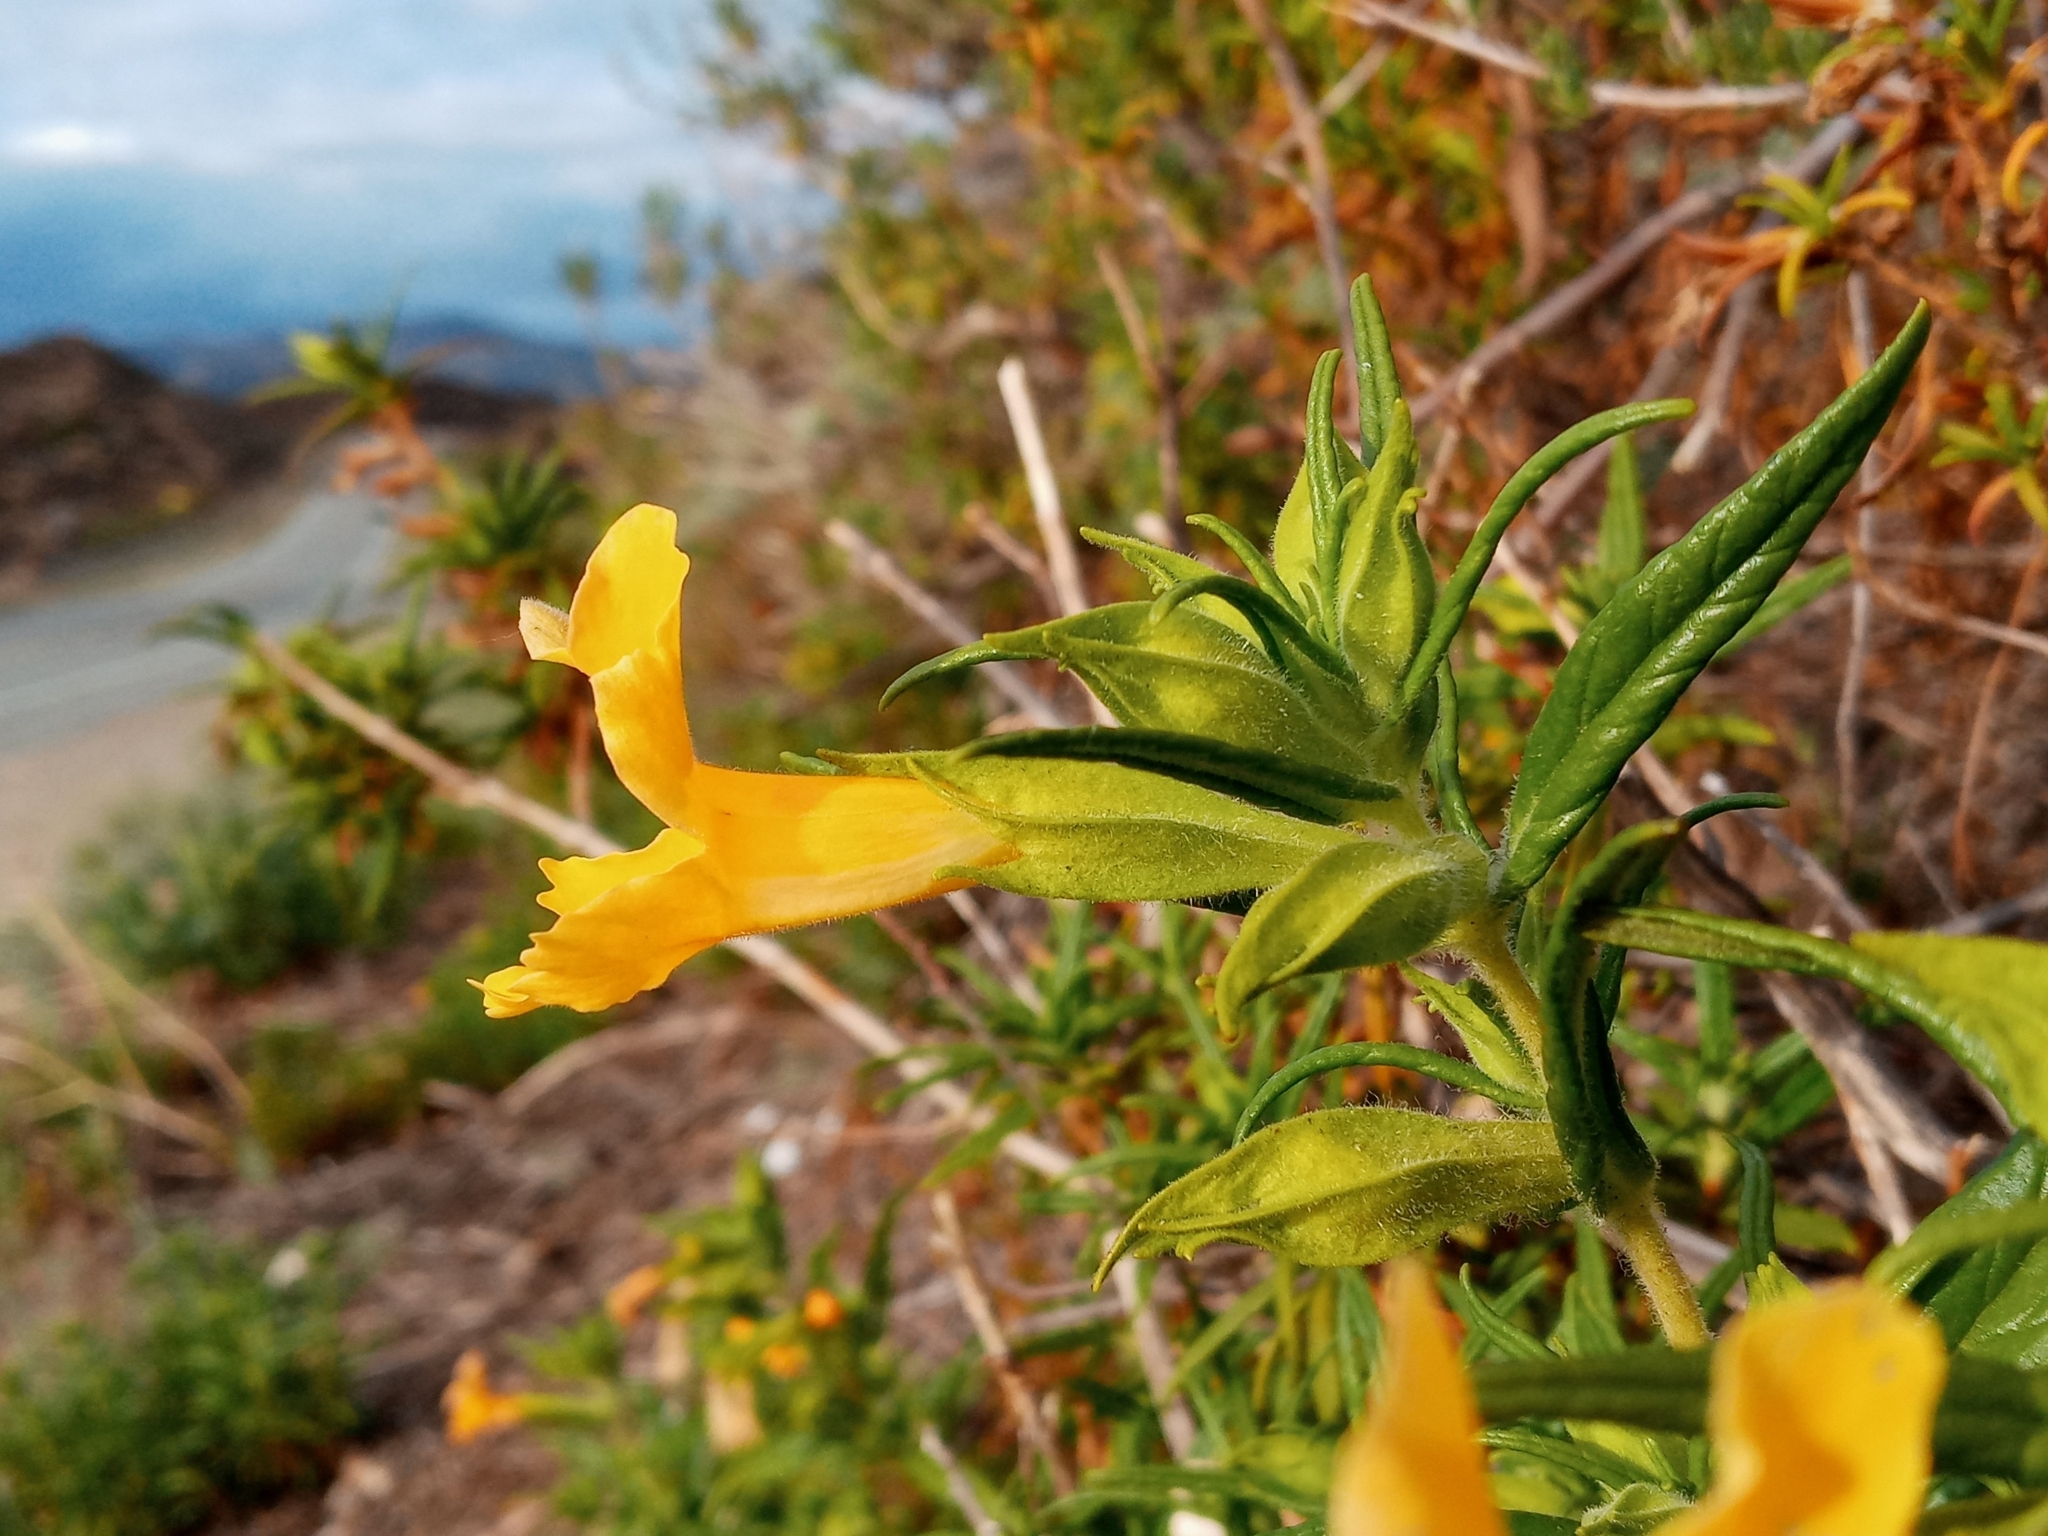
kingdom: Plantae
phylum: Tracheophyta
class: Magnoliopsida
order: Lamiales
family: Phrymaceae
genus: Diplacus
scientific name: Diplacus longiflorus
